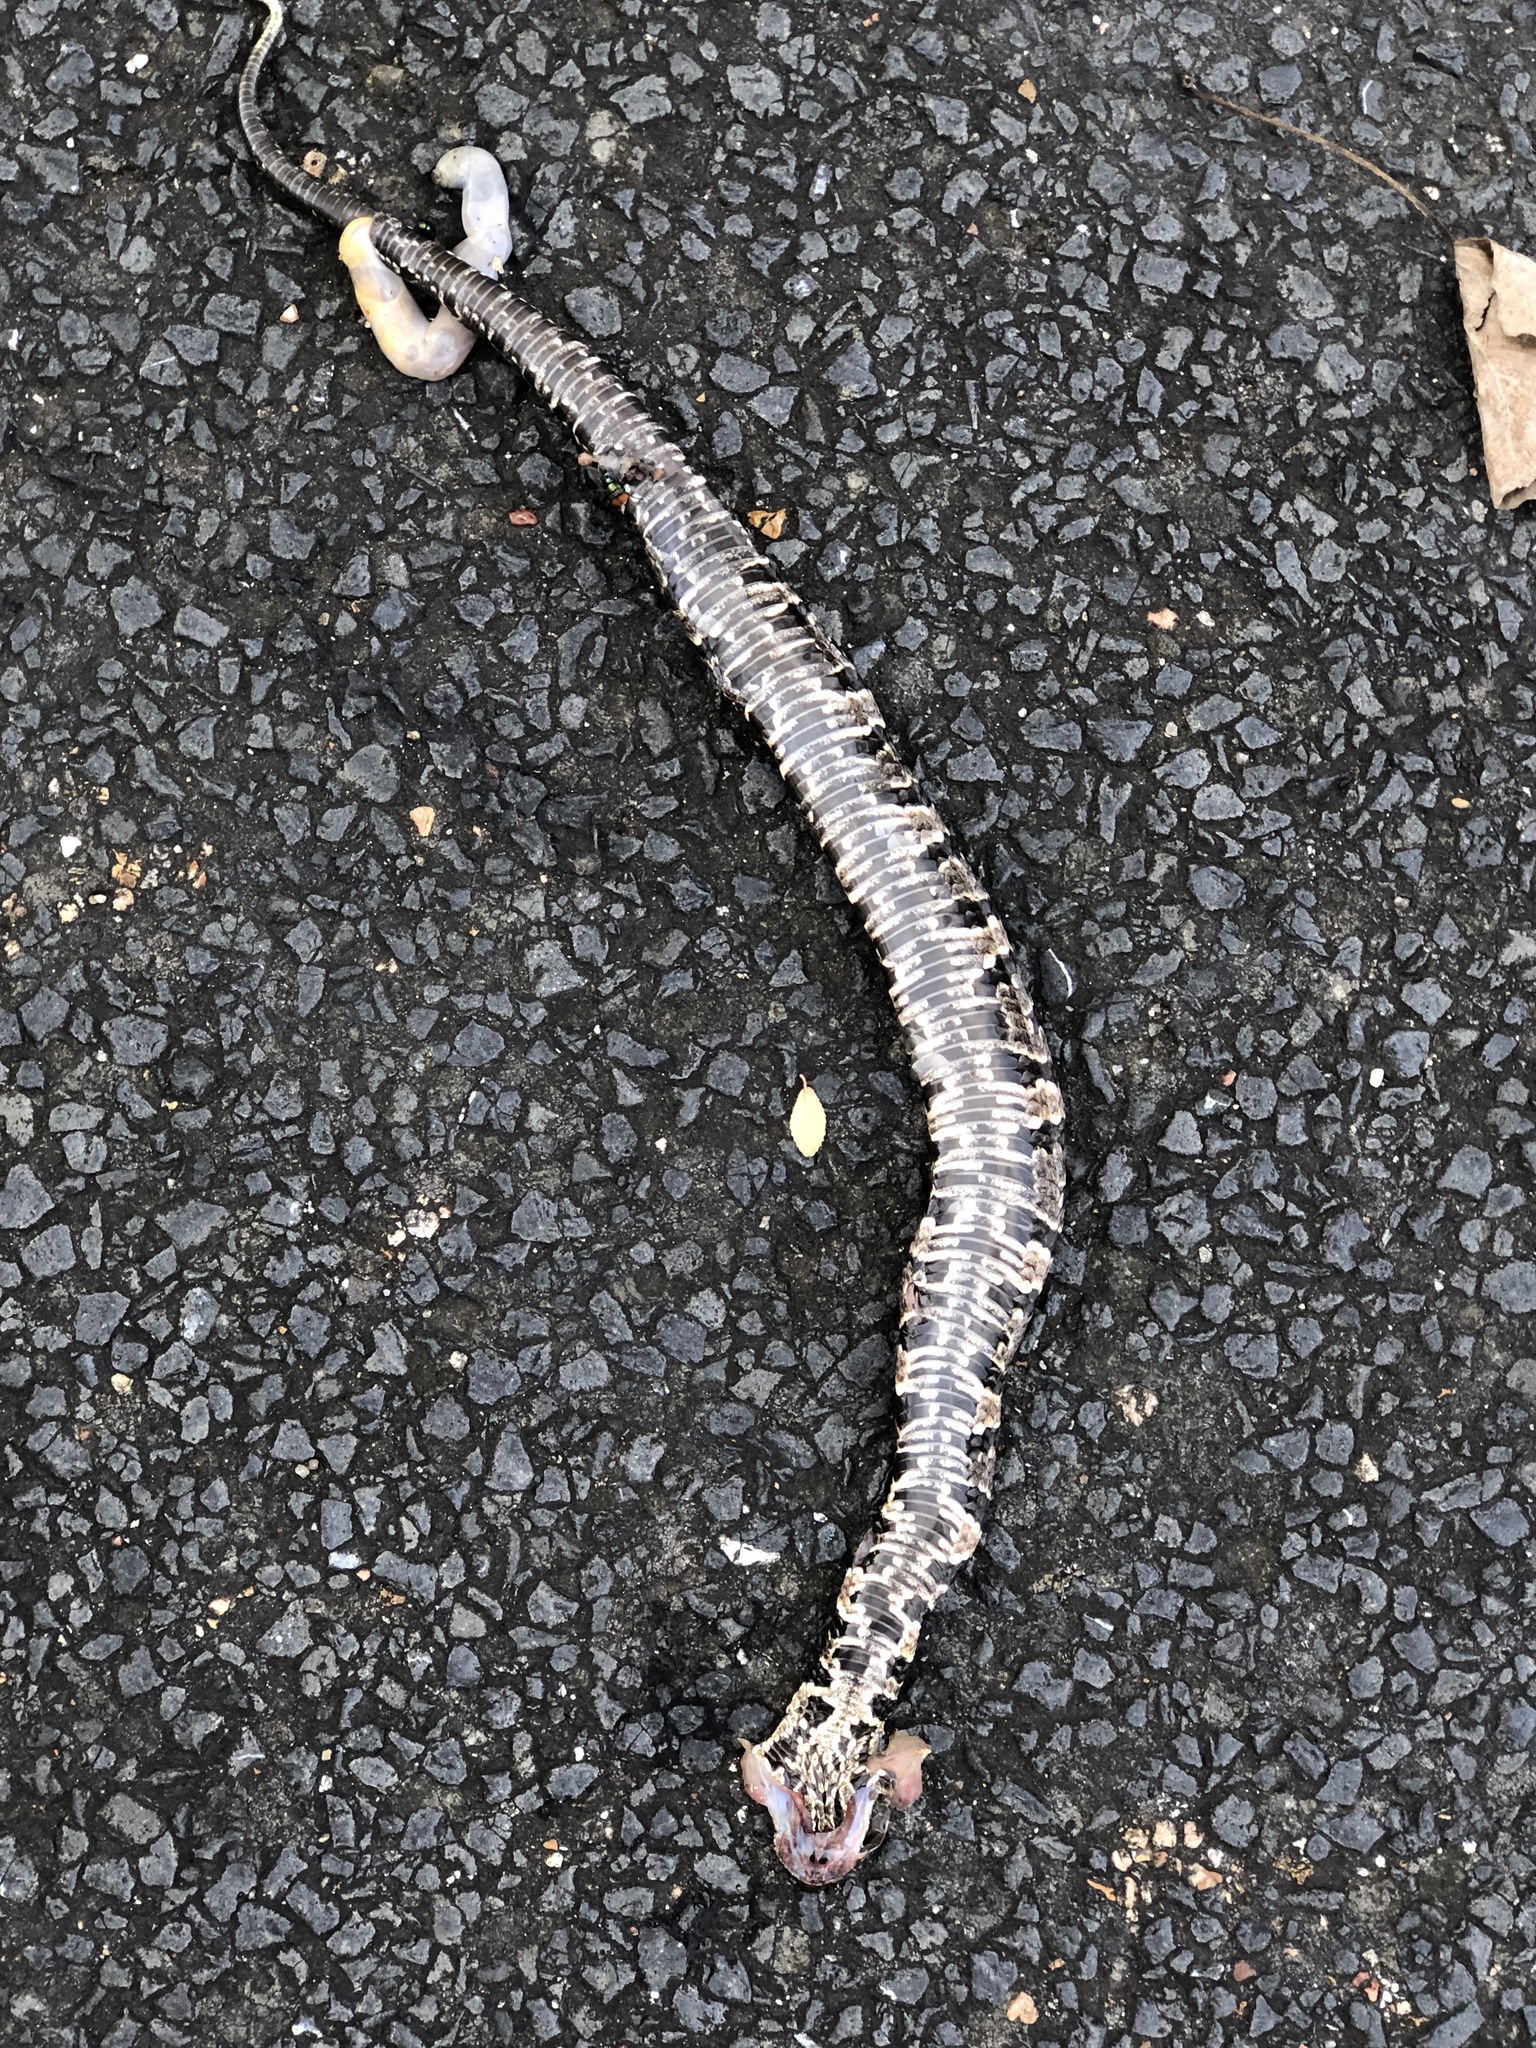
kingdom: Animalia
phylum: Chordata
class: Squamata
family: Viperidae
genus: Agkistrodon
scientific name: Agkistrodon piscivorus
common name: Cottonmouth
